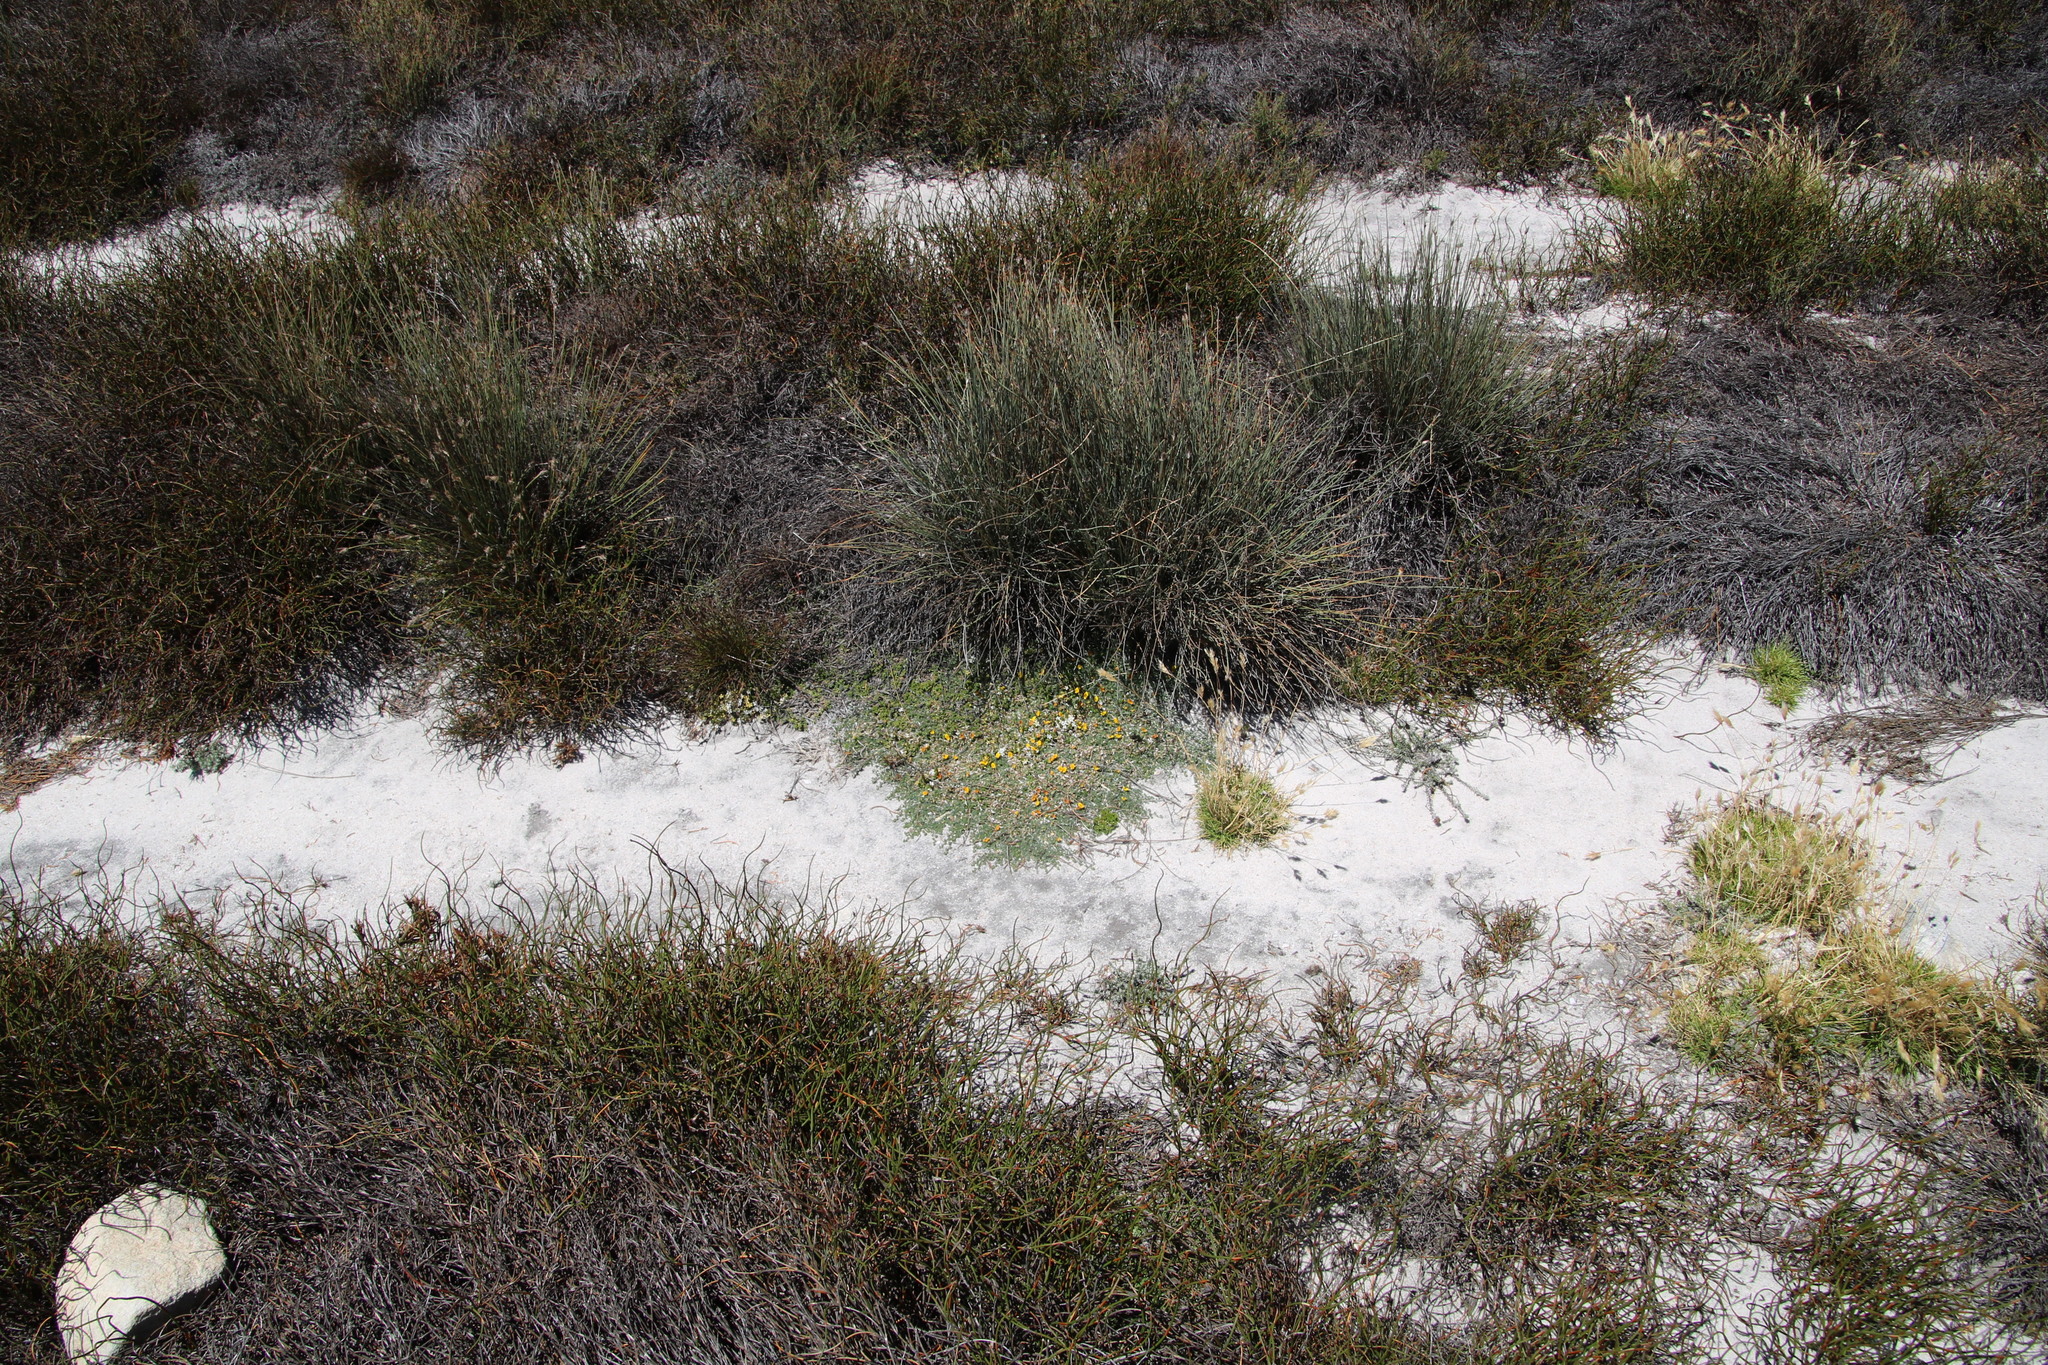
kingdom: Plantae
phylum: Tracheophyta
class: Magnoliopsida
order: Fabales
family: Fabaceae
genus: Aspalathus
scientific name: Aspalathus bodkinii
